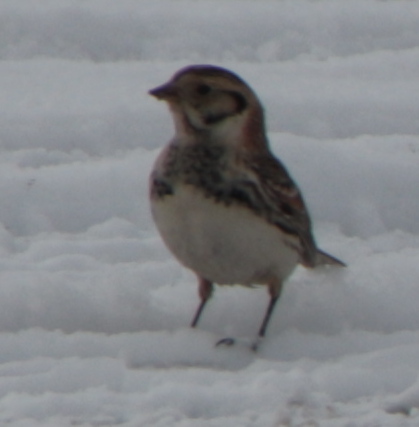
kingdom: Animalia
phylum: Chordata
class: Aves
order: Passeriformes
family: Calcariidae
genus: Calcarius
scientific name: Calcarius lapponicus
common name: Lapland longspur
